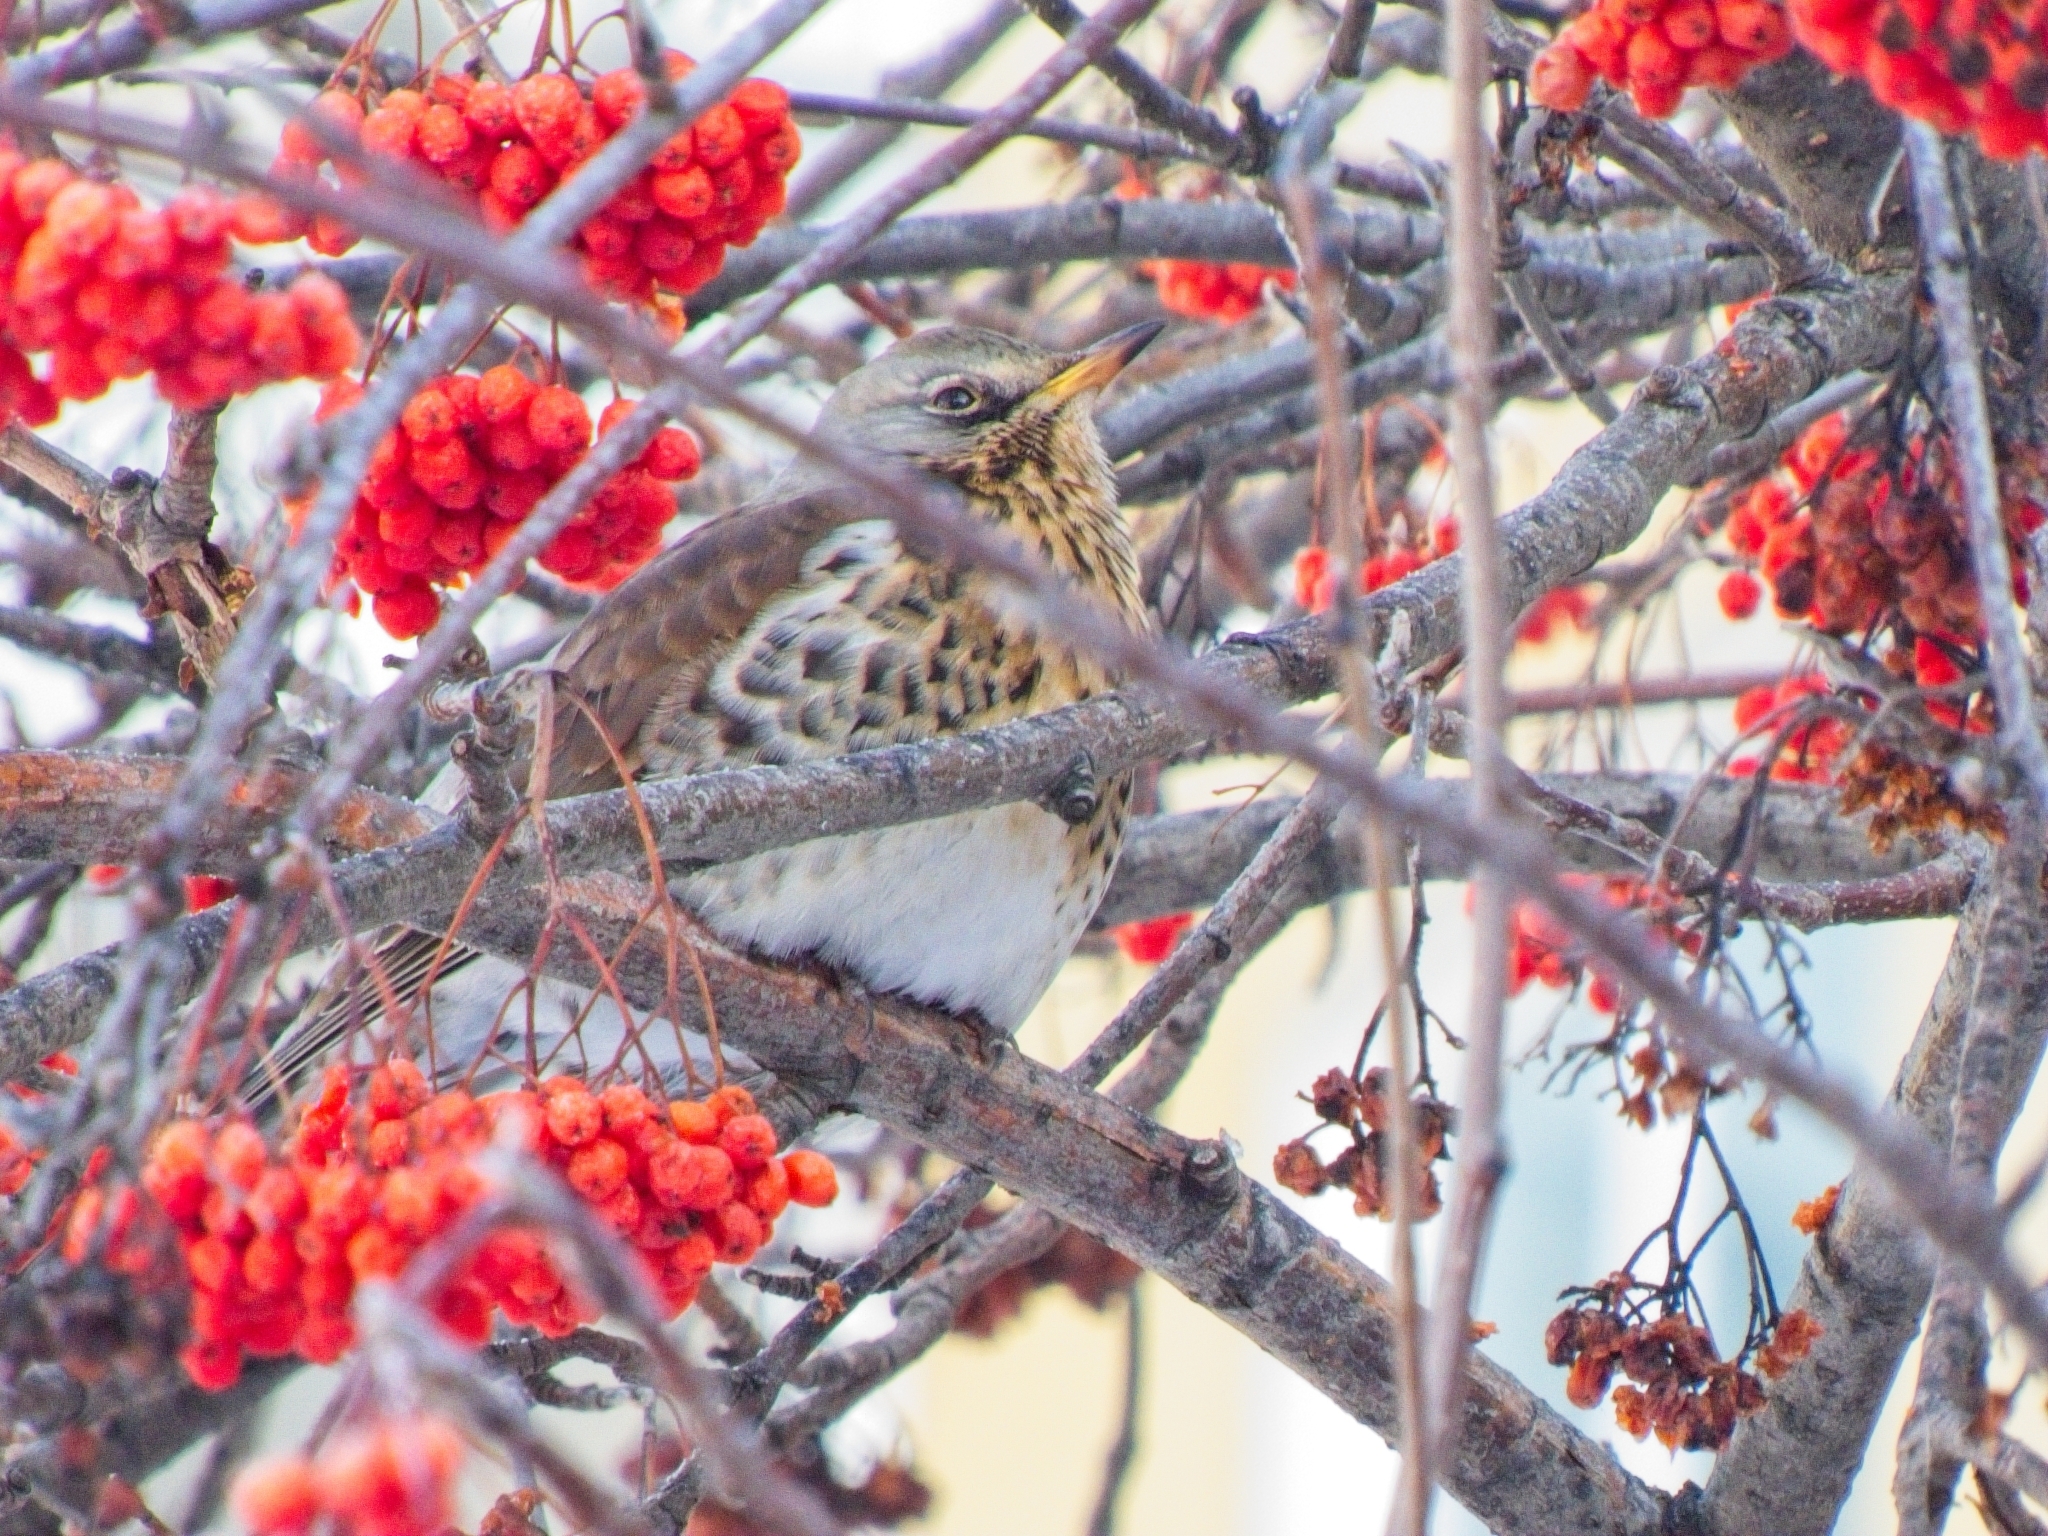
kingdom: Animalia
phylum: Chordata
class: Aves
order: Passeriformes
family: Turdidae
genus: Turdus
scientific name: Turdus pilaris
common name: Fieldfare
